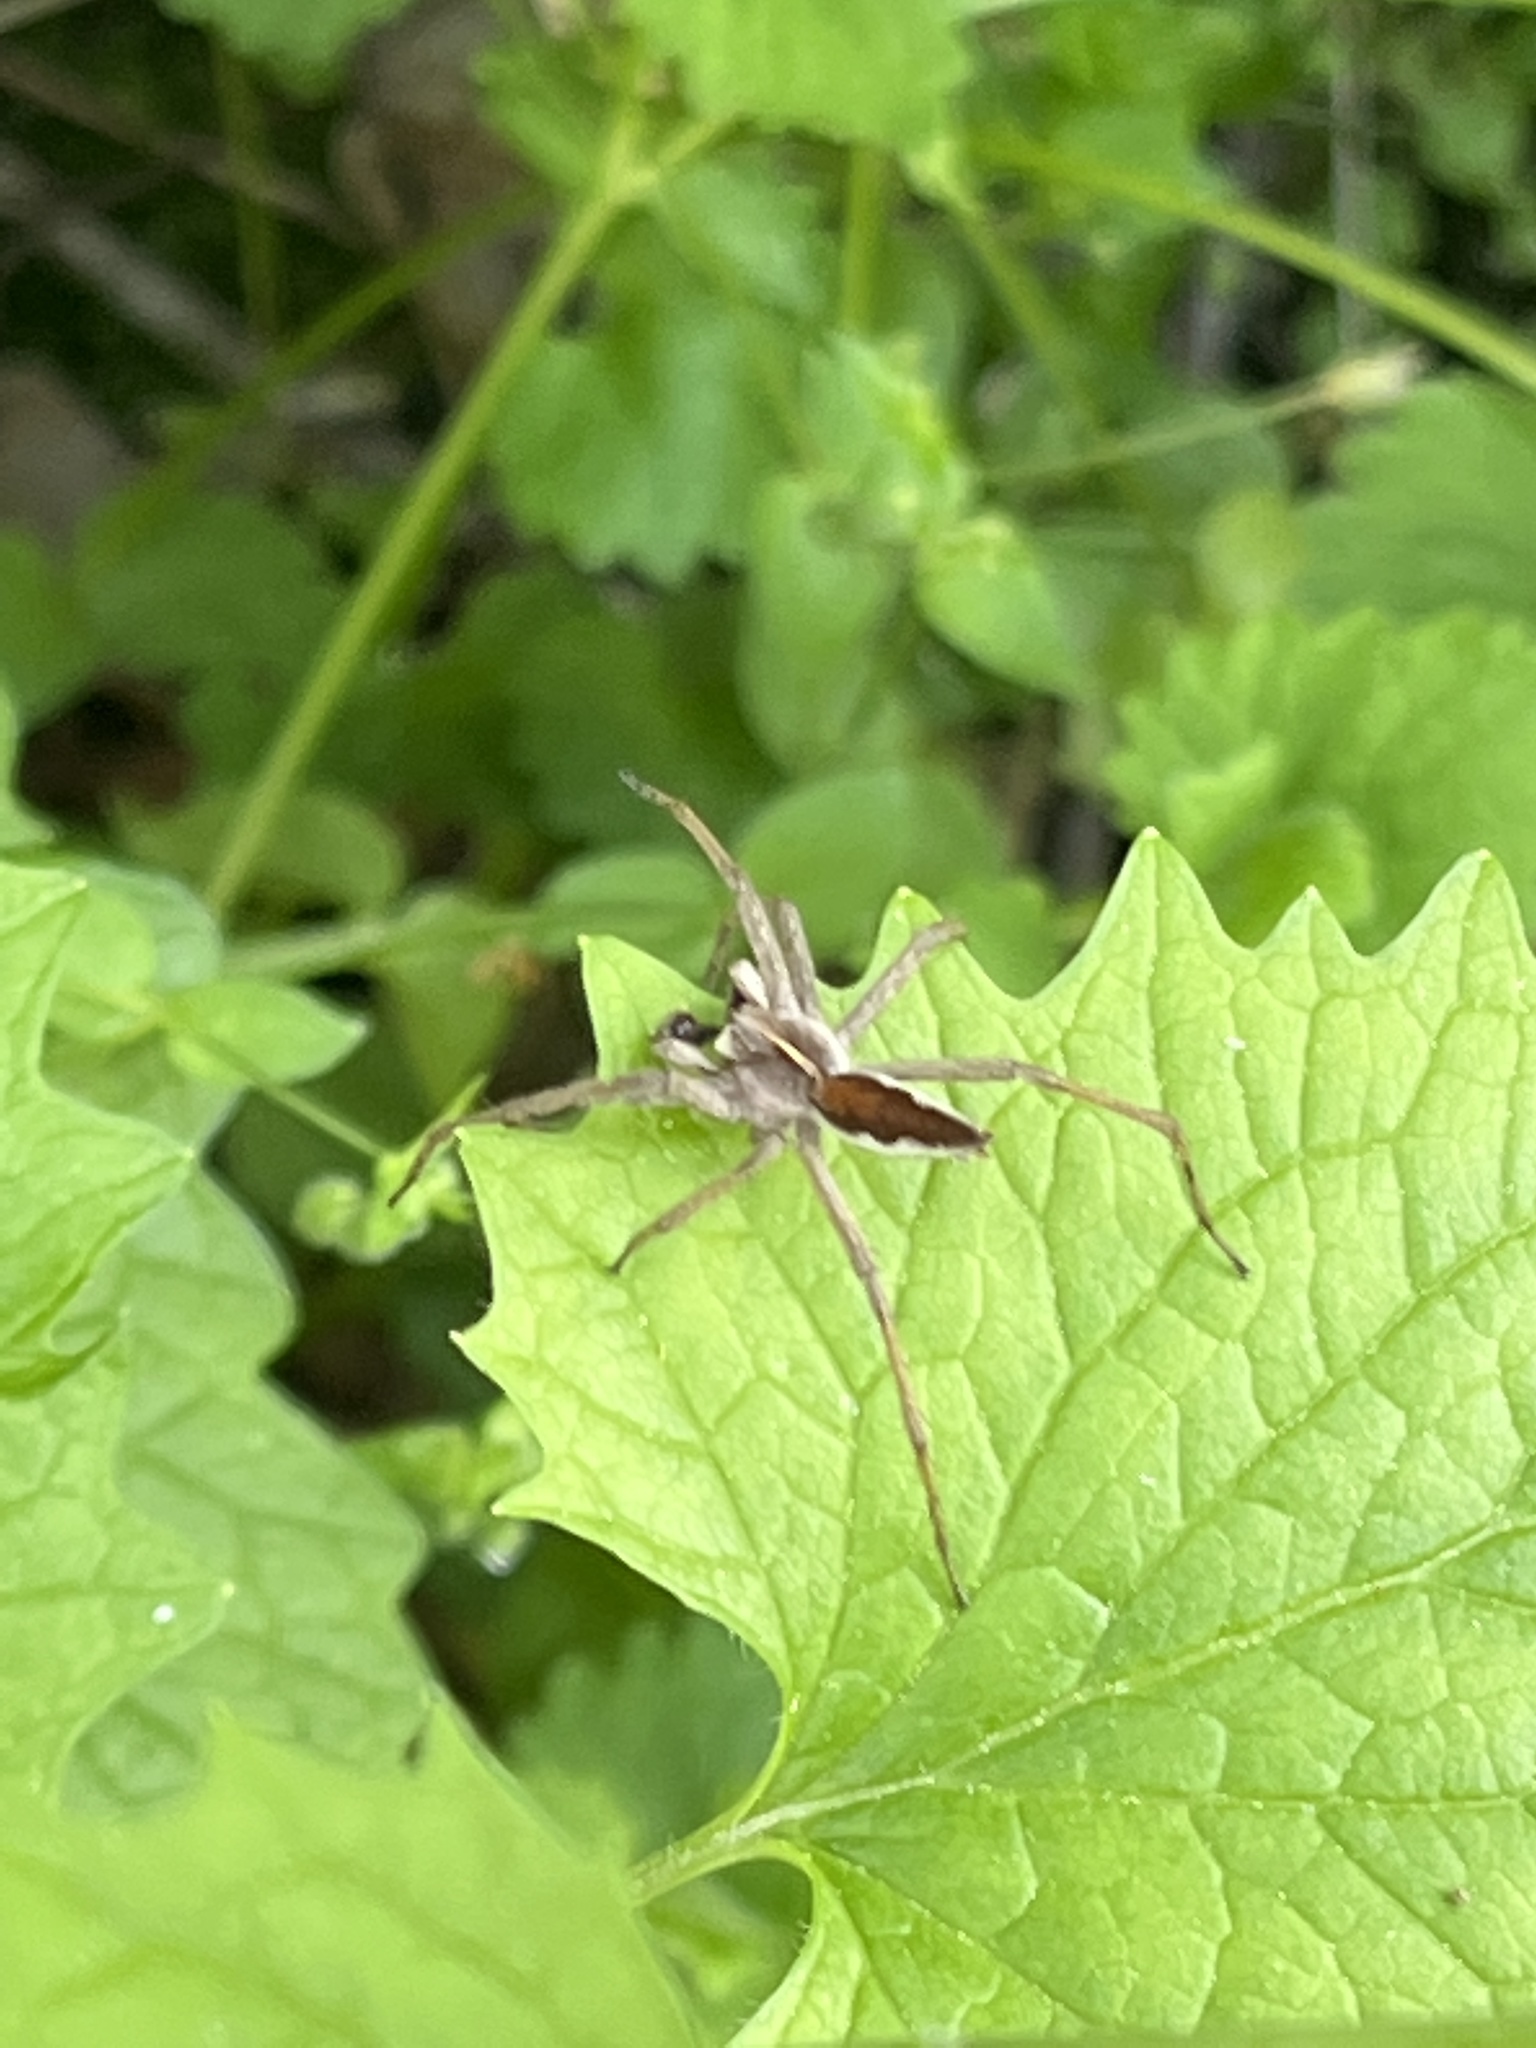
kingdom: Animalia
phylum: Arthropoda
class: Arachnida
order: Araneae
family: Pisauridae
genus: Pisaura
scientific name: Pisaura mirabilis
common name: Tent spider
